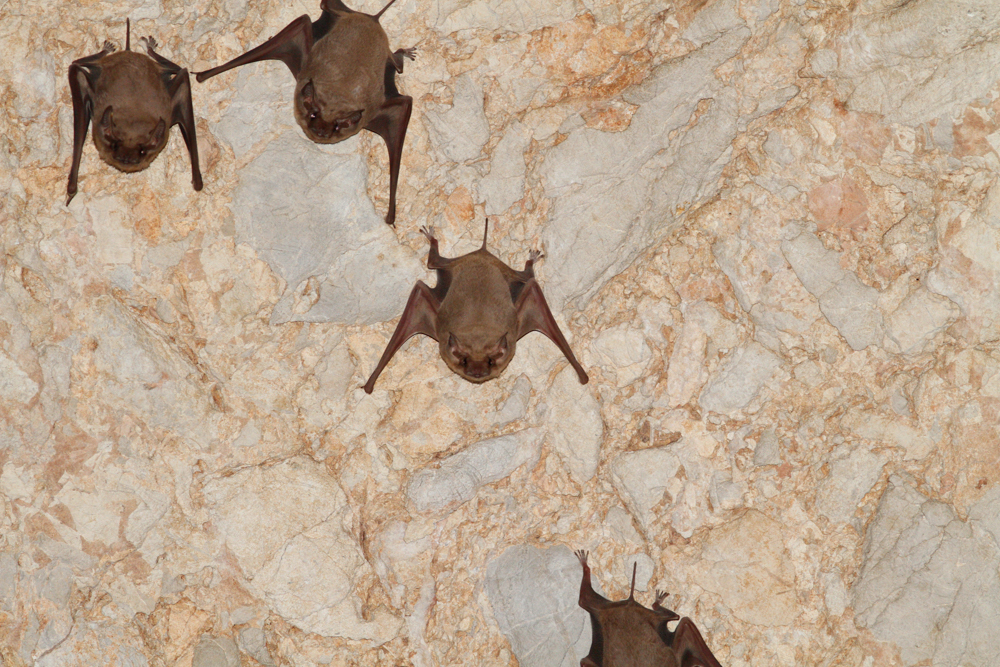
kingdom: Animalia
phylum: Chordata
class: Mammalia
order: Chiroptera
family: Emballonuridae
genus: Taphozous
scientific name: Taphozous melanopogon
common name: Black-bearded tomb bat
